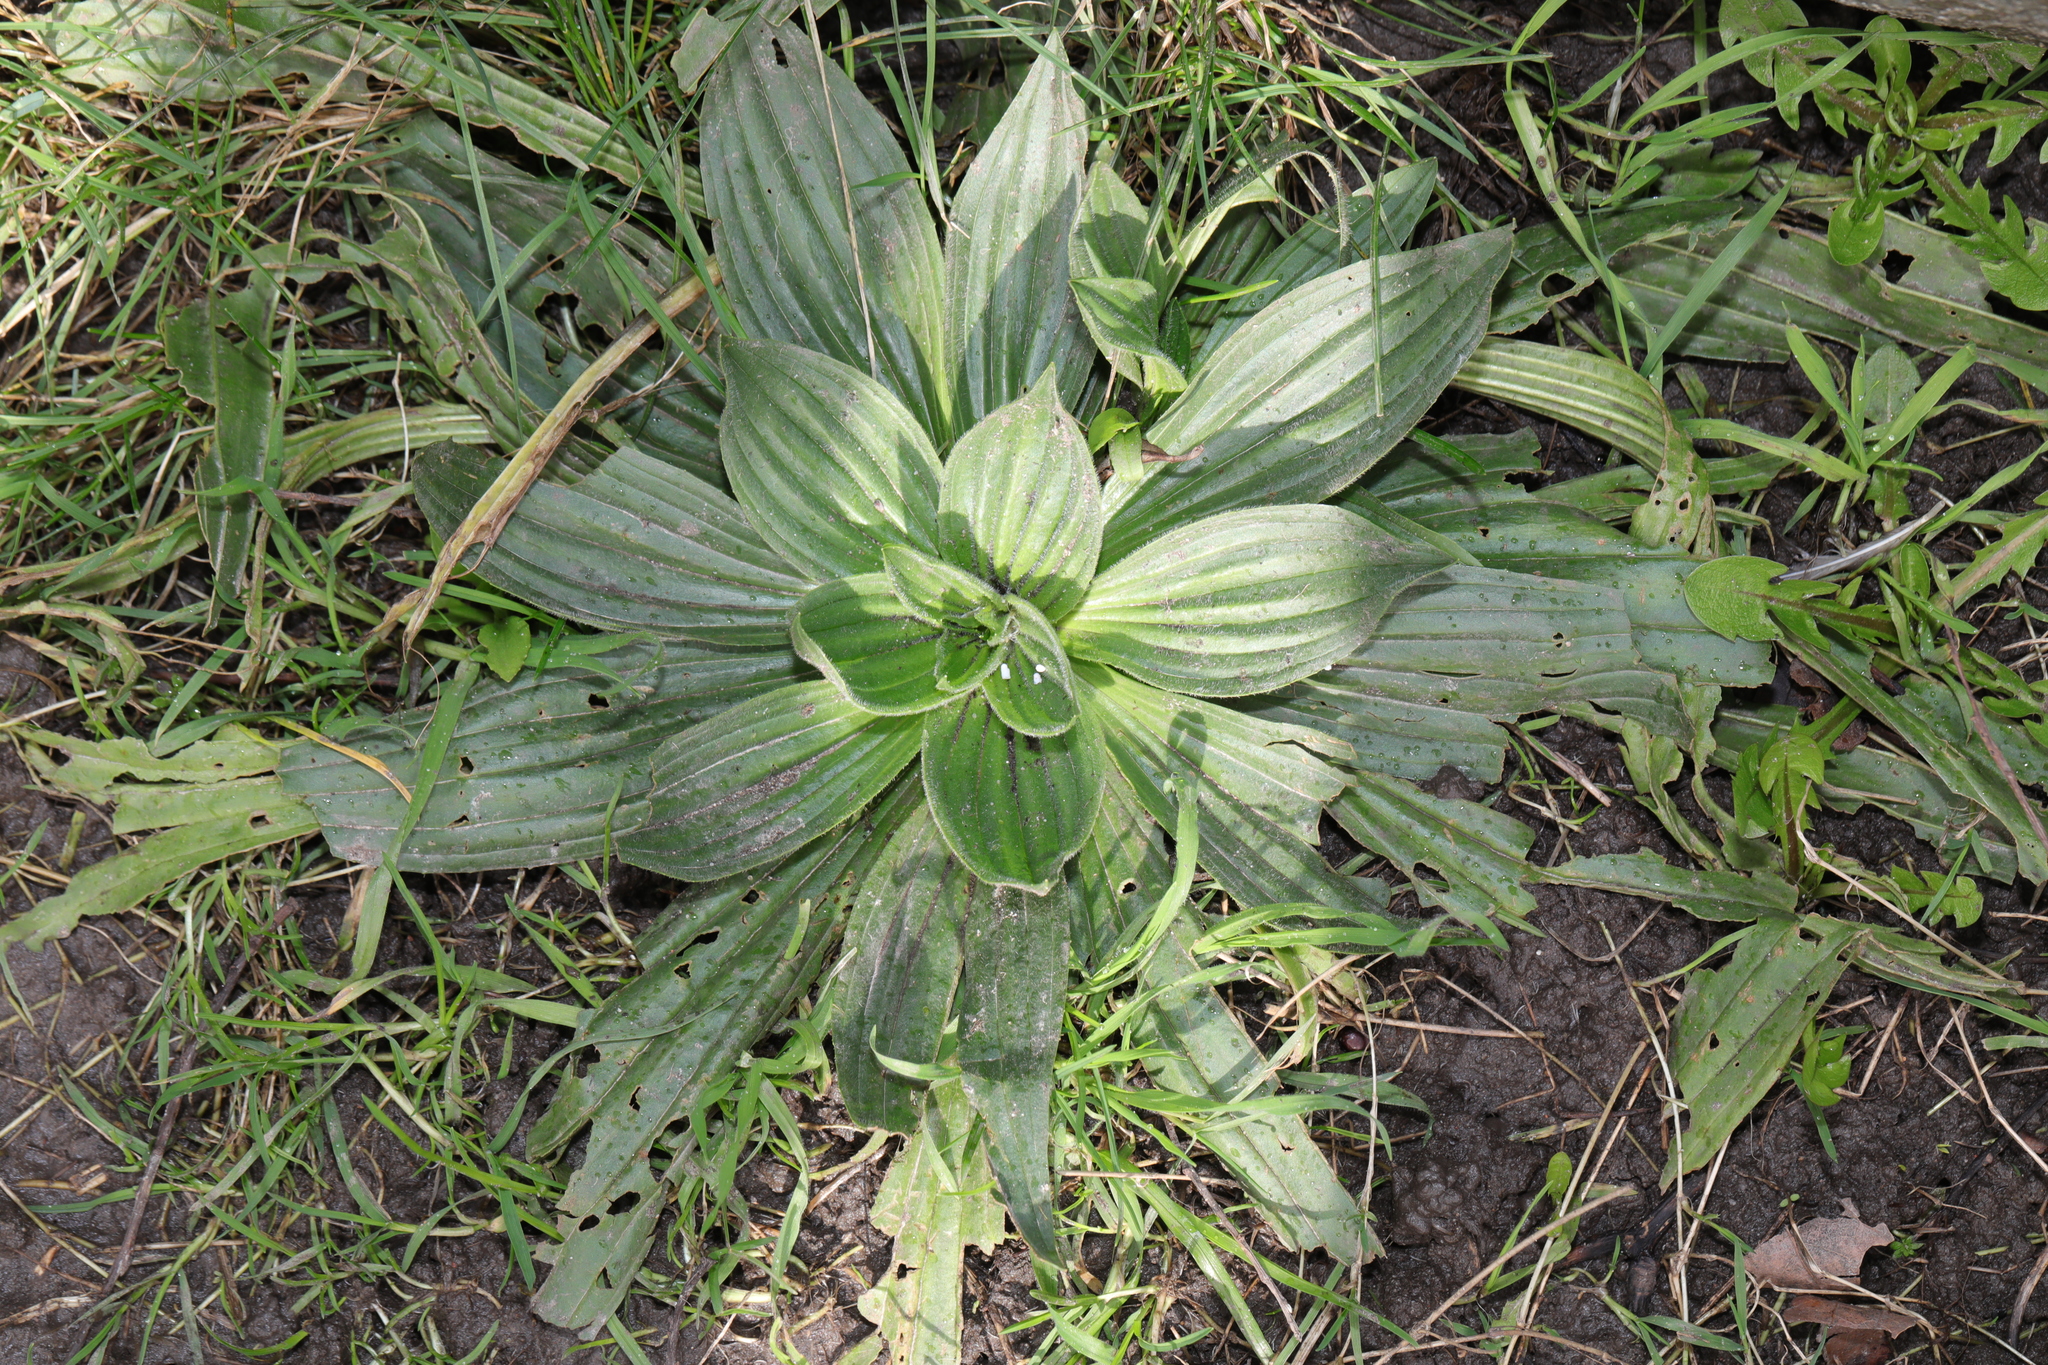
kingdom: Plantae
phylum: Tracheophyta
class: Magnoliopsida
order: Lamiales
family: Plantaginaceae
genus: Plantago
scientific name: Plantago media
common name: Hoary plantain
